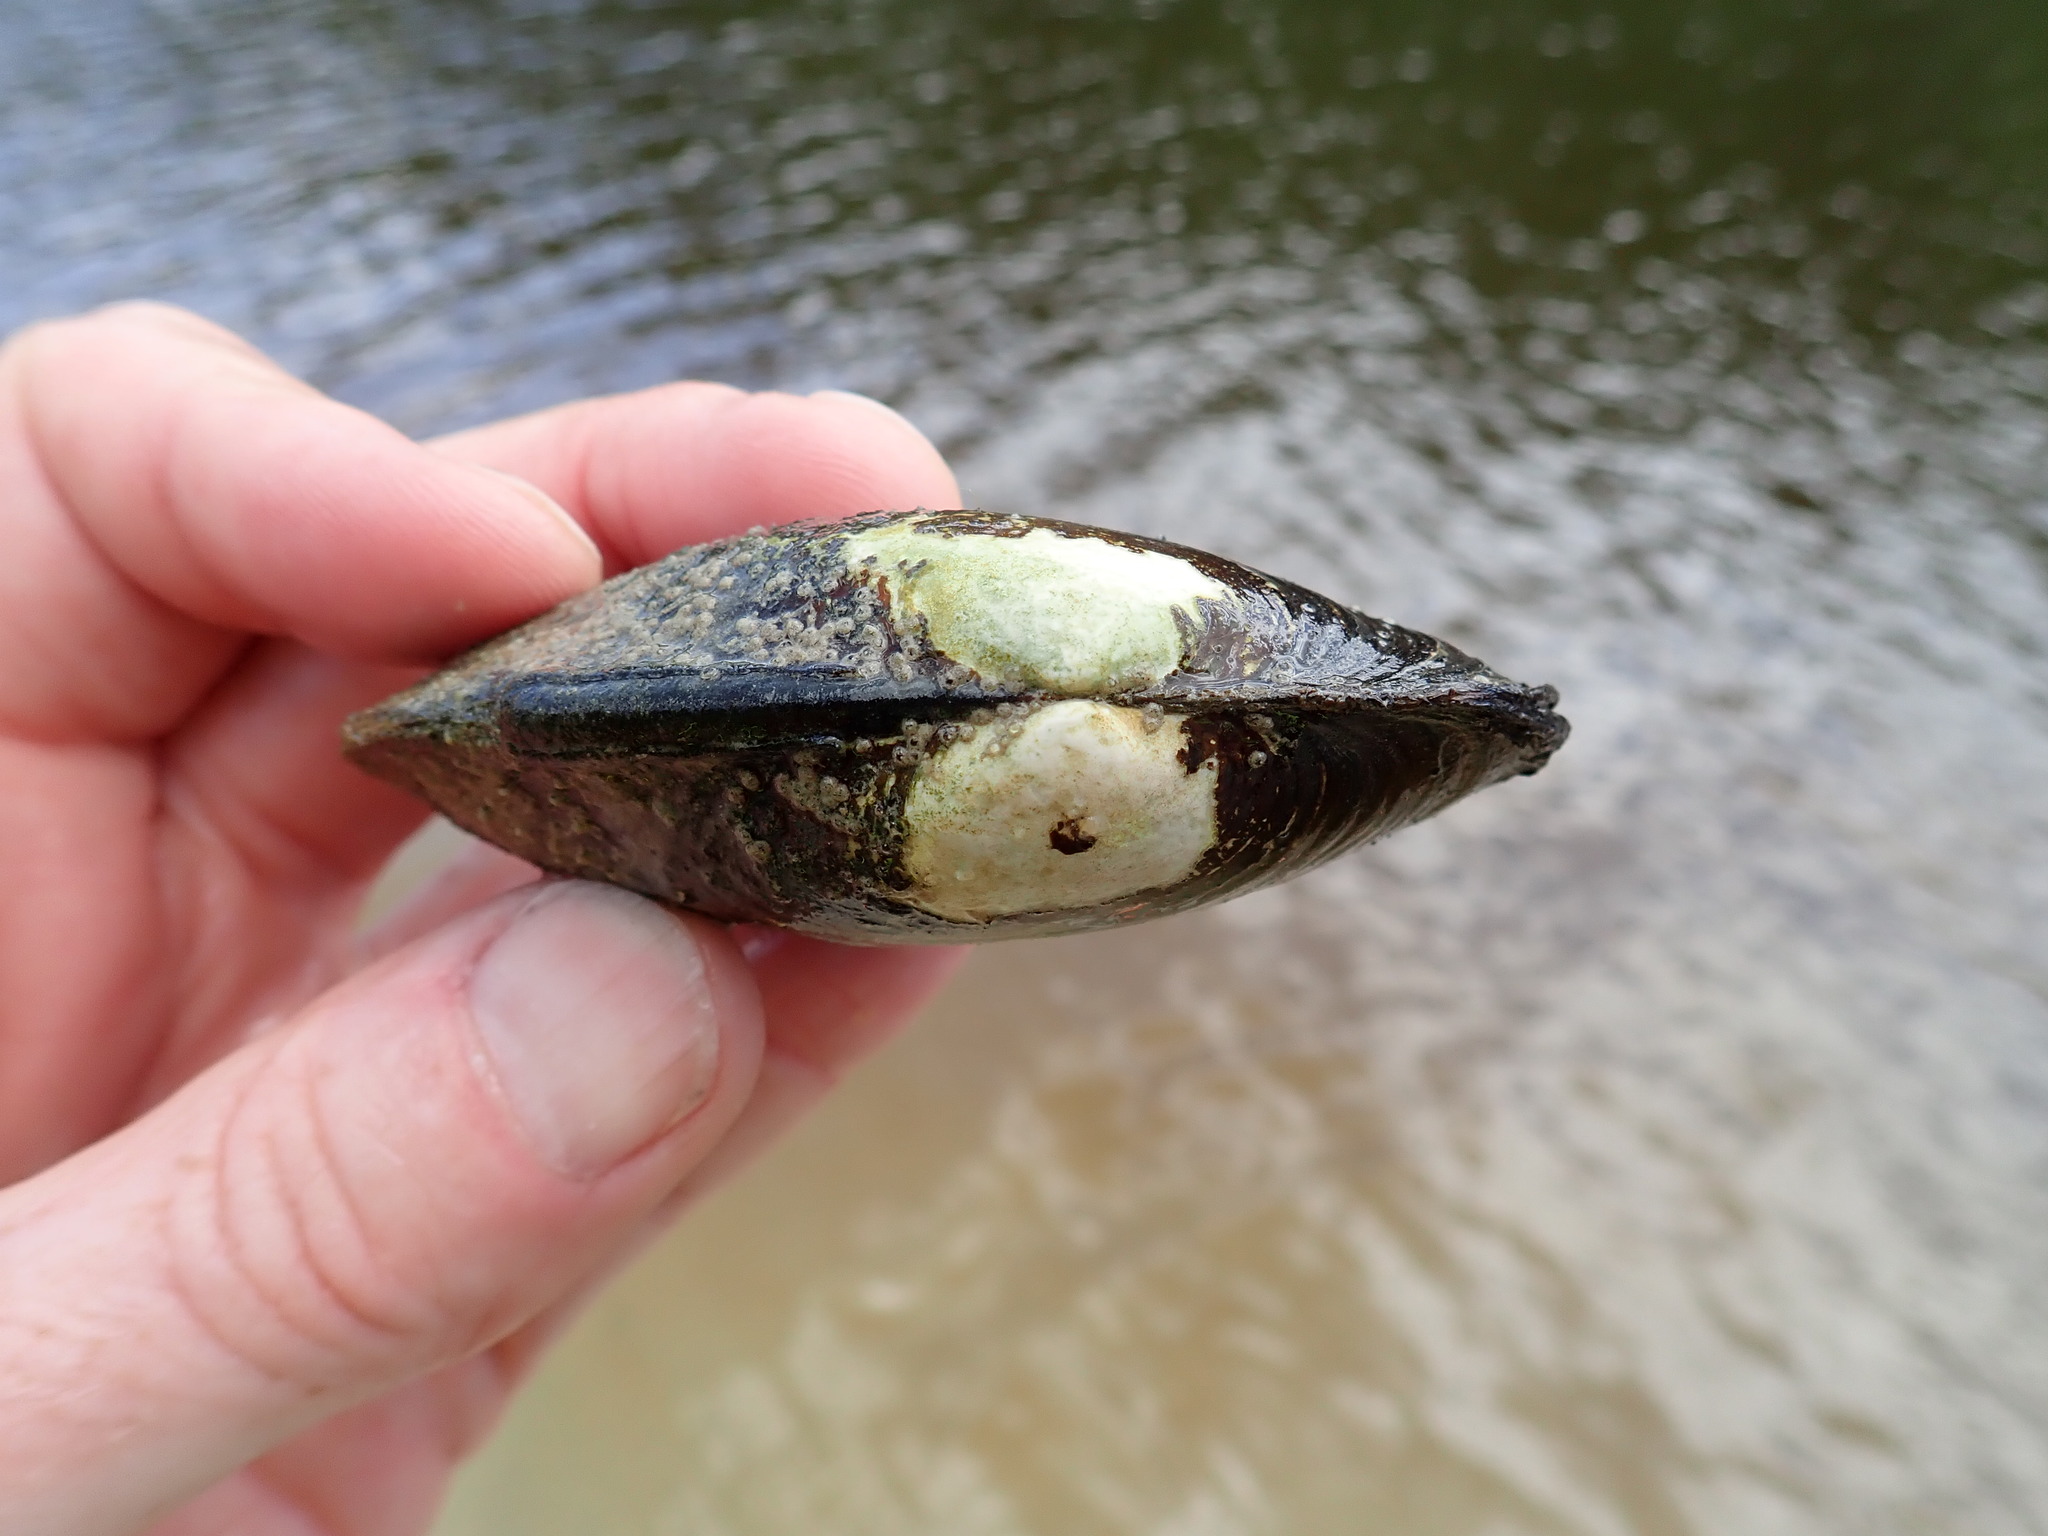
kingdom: Animalia
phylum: Mollusca
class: Bivalvia
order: Unionida
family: Unionidae
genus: Lampsilis
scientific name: Lampsilis siliquoidea
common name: Fatmucket
